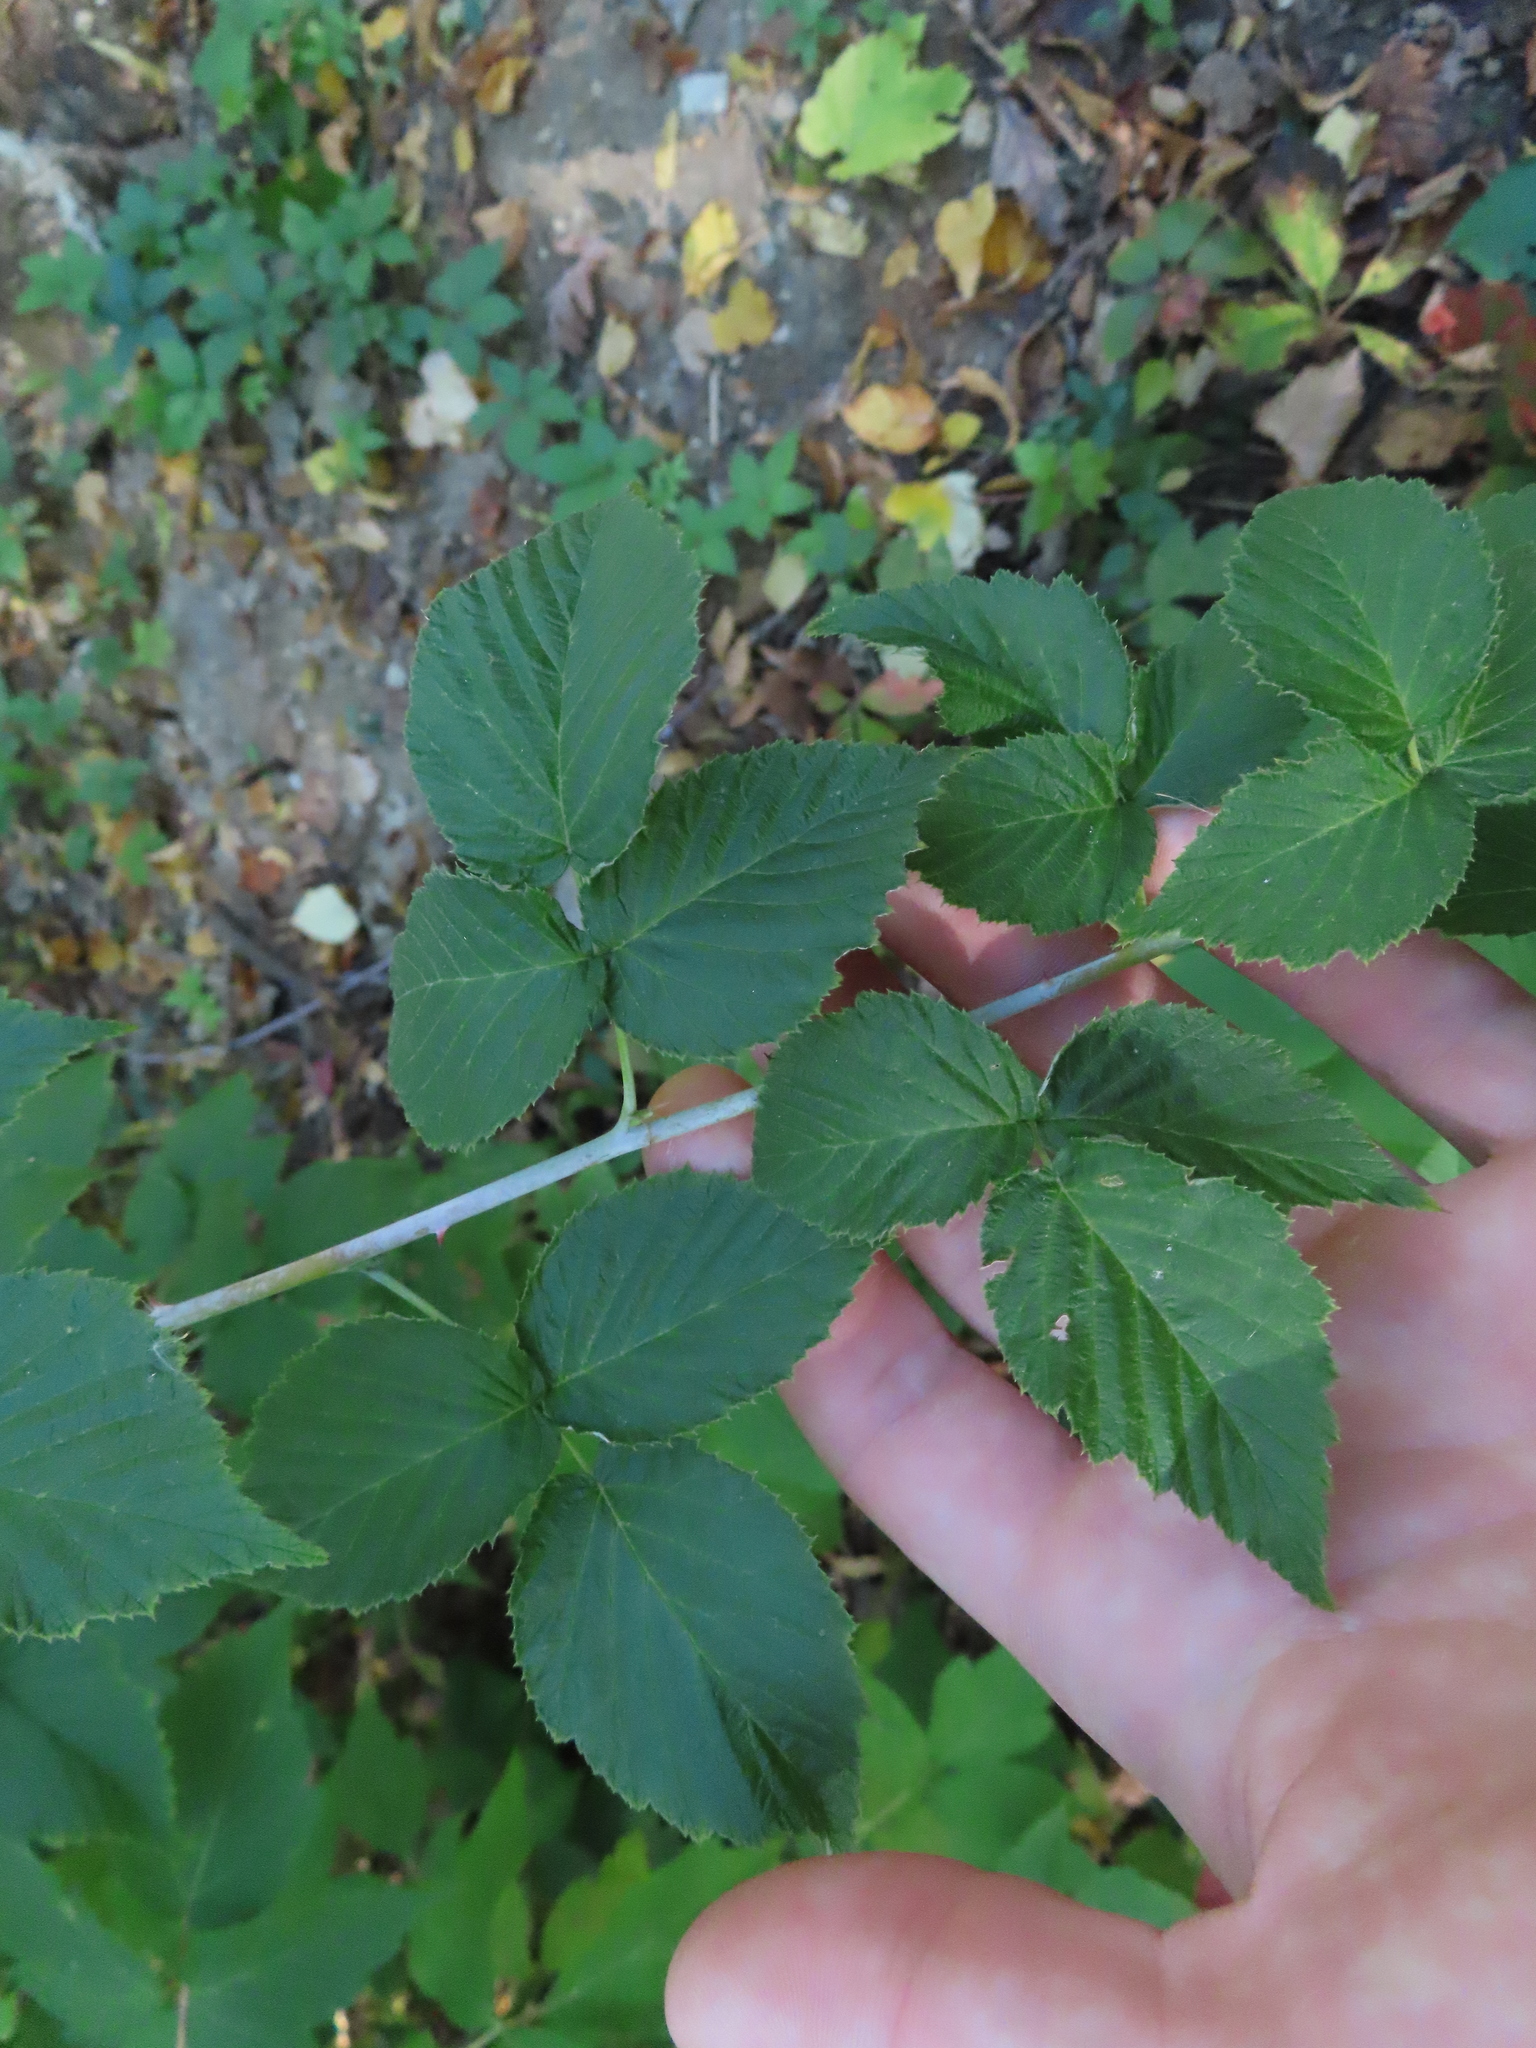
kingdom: Plantae
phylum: Tracheophyta
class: Magnoliopsida
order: Rosales
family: Rosaceae
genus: Rubus
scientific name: Rubus occidentalis
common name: Black raspberry
